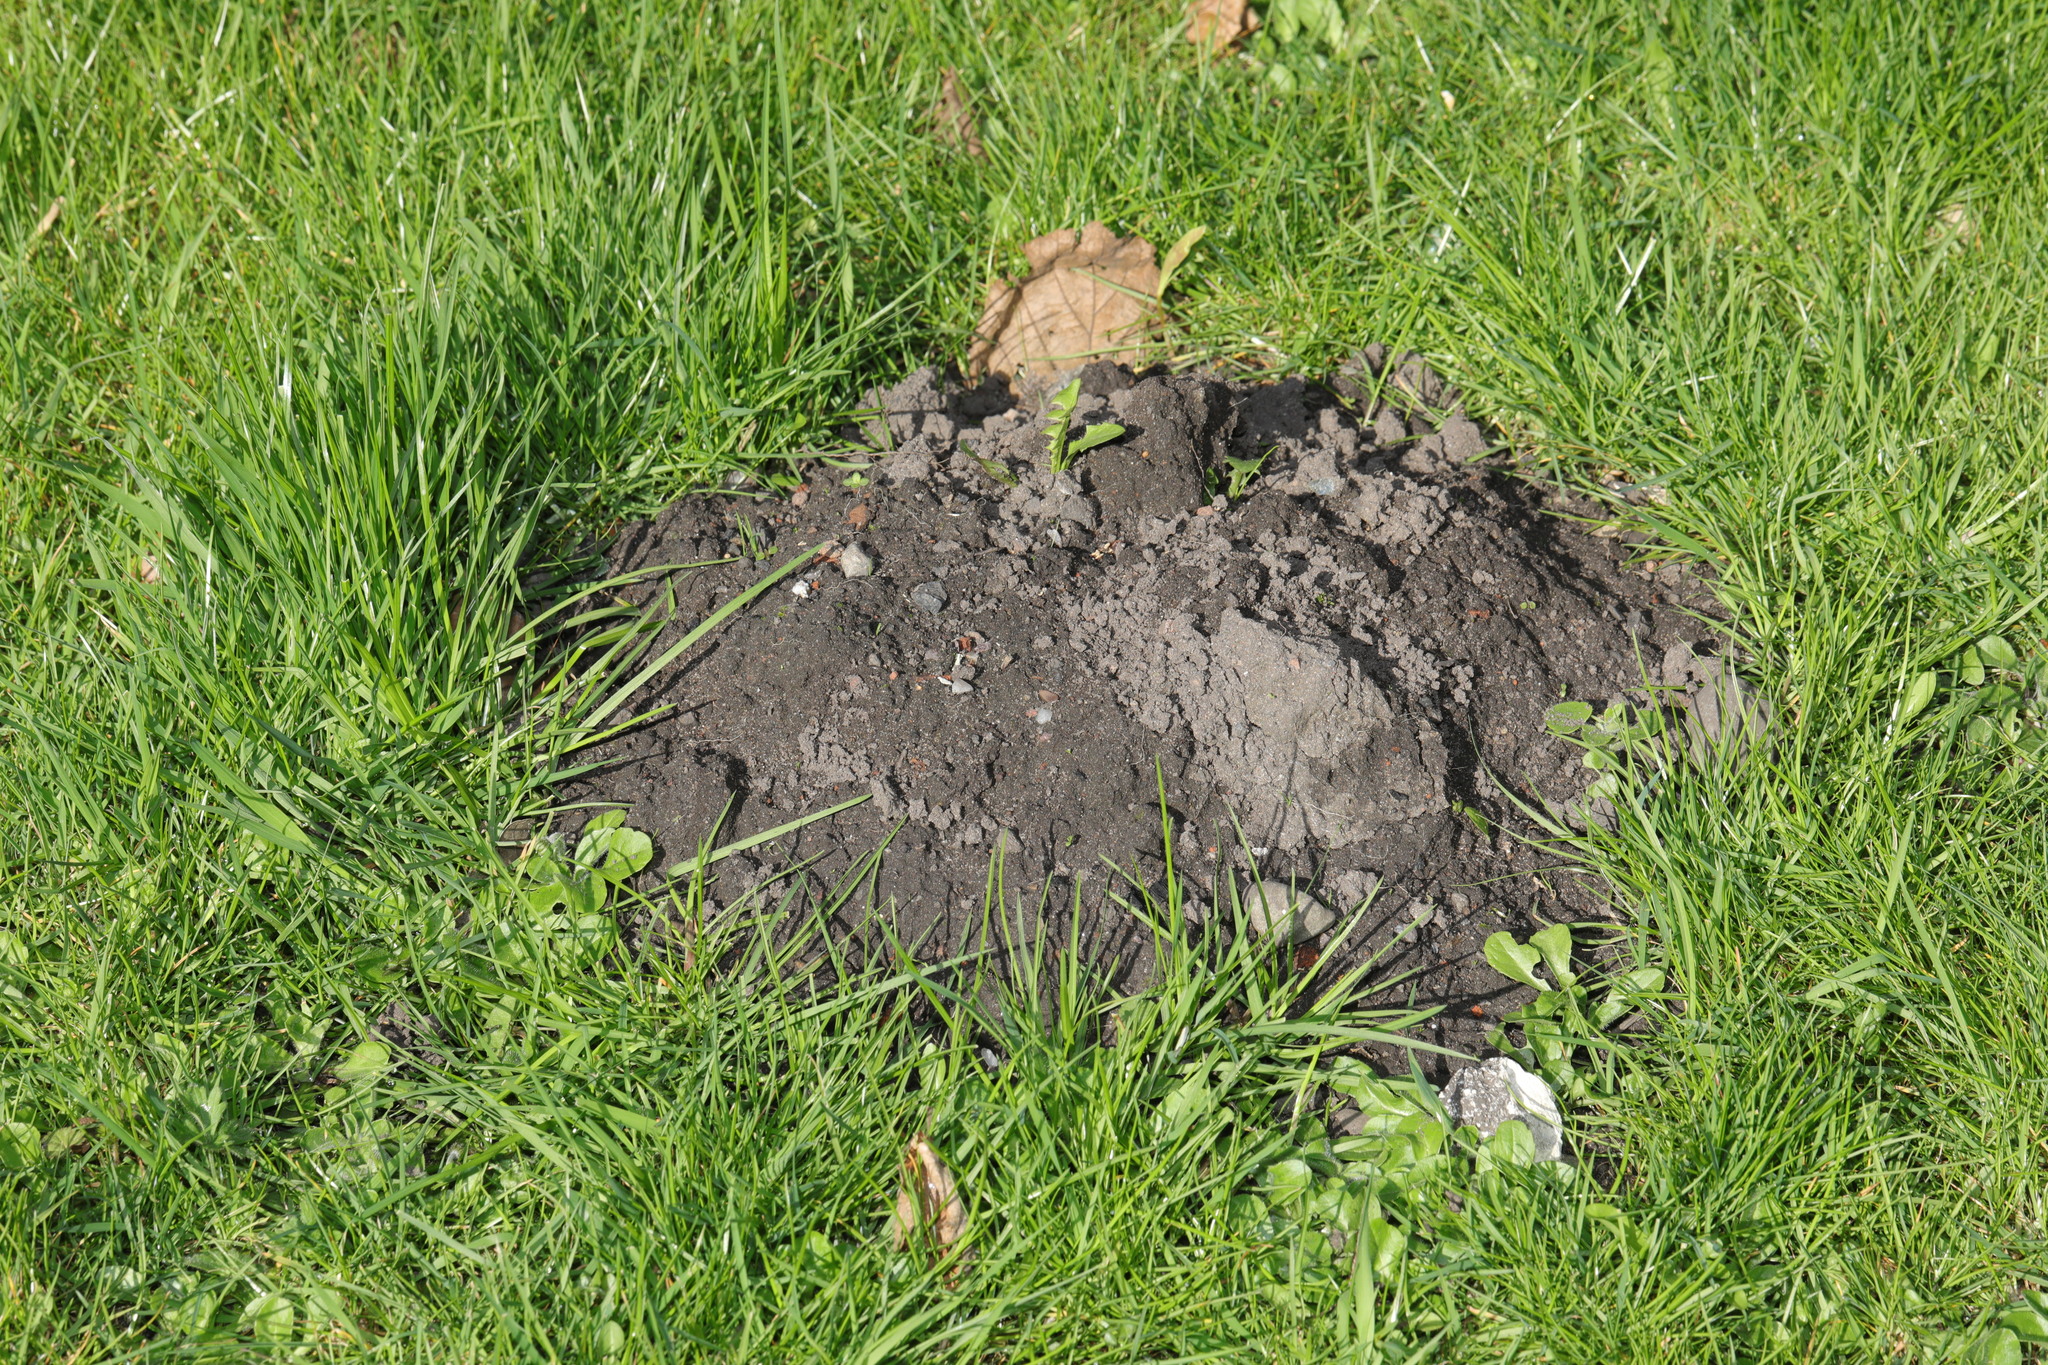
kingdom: Animalia
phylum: Chordata
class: Mammalia
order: Soricomorpha
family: Talpidae
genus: Talpa
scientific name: Talpa europaea
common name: European mole
